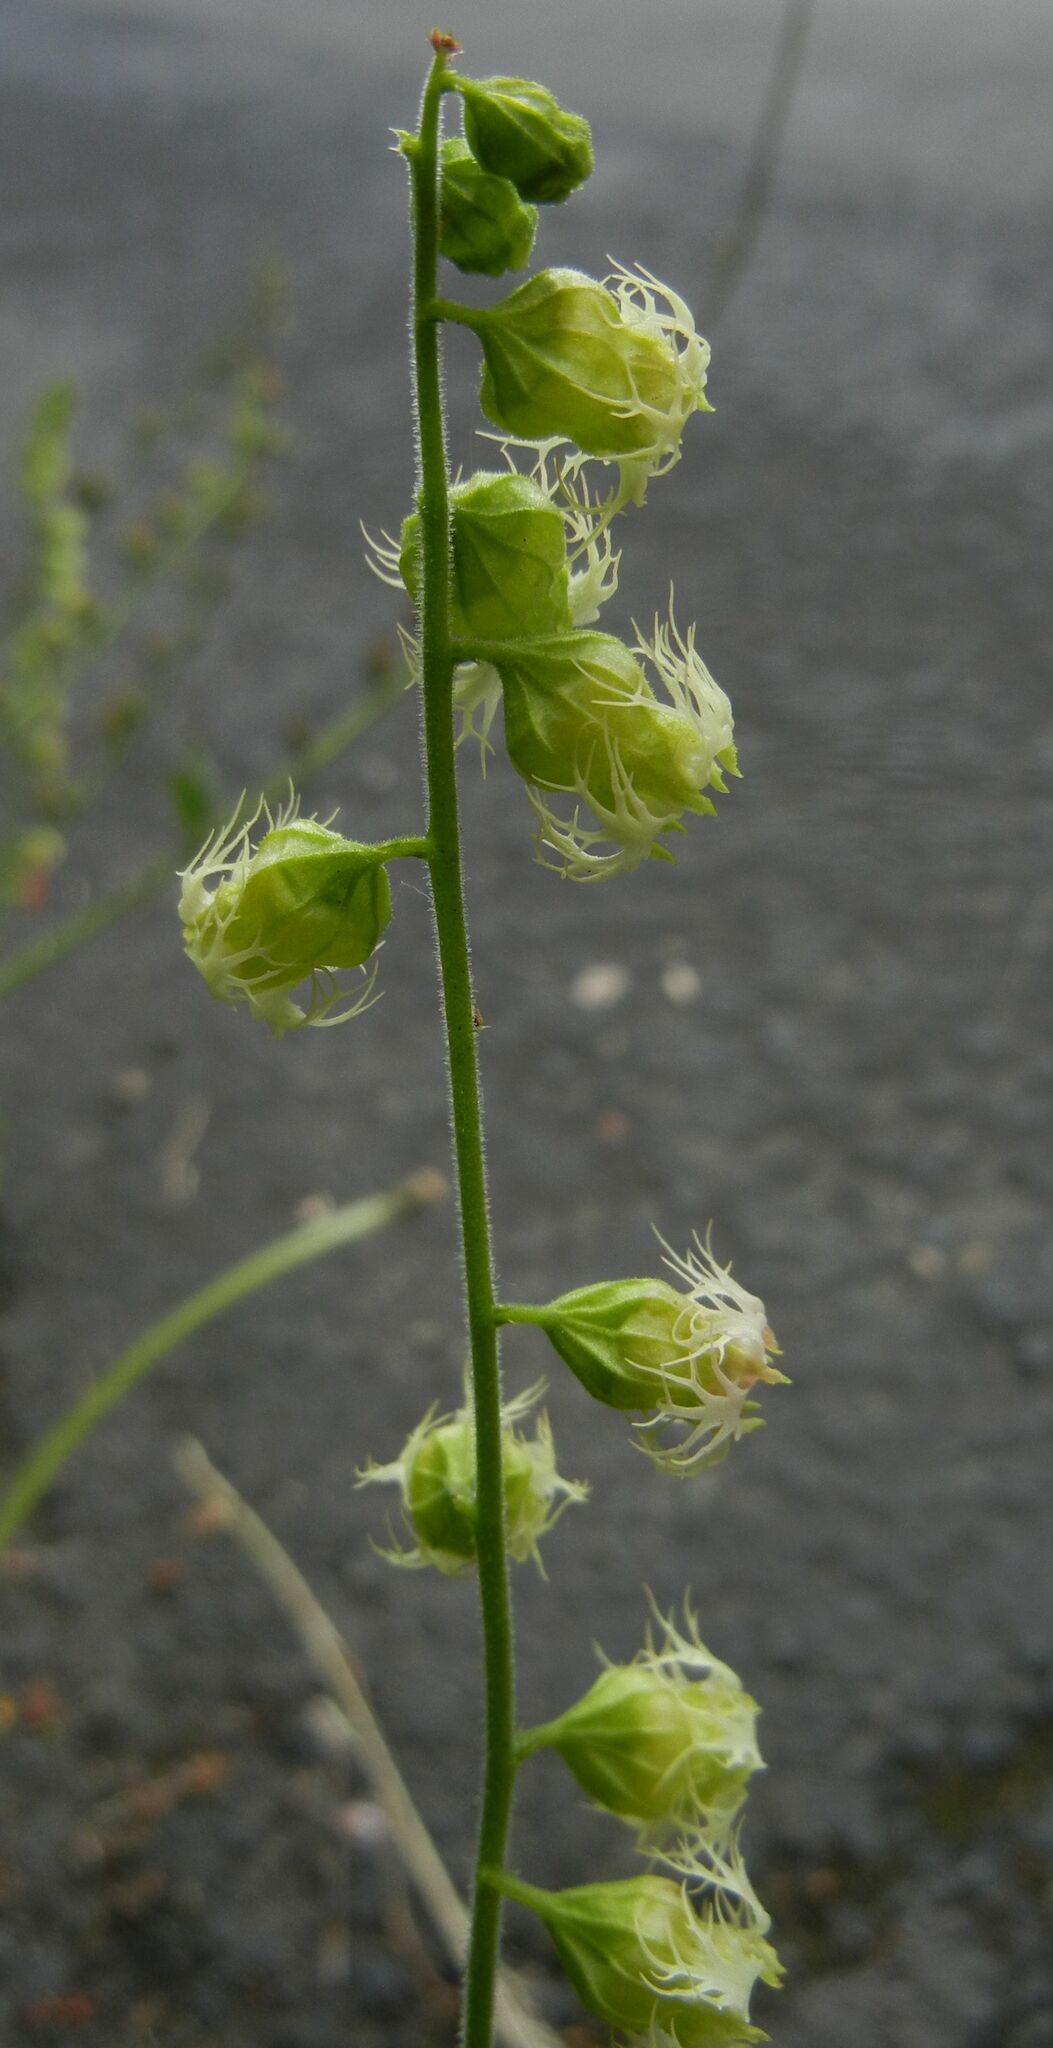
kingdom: Plantae
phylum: Tracheophyta
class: Magnoliopsida
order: Saxifragales
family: Saxifragaceae
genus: Tellima
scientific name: Tellima grandiflora
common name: Fringecups
